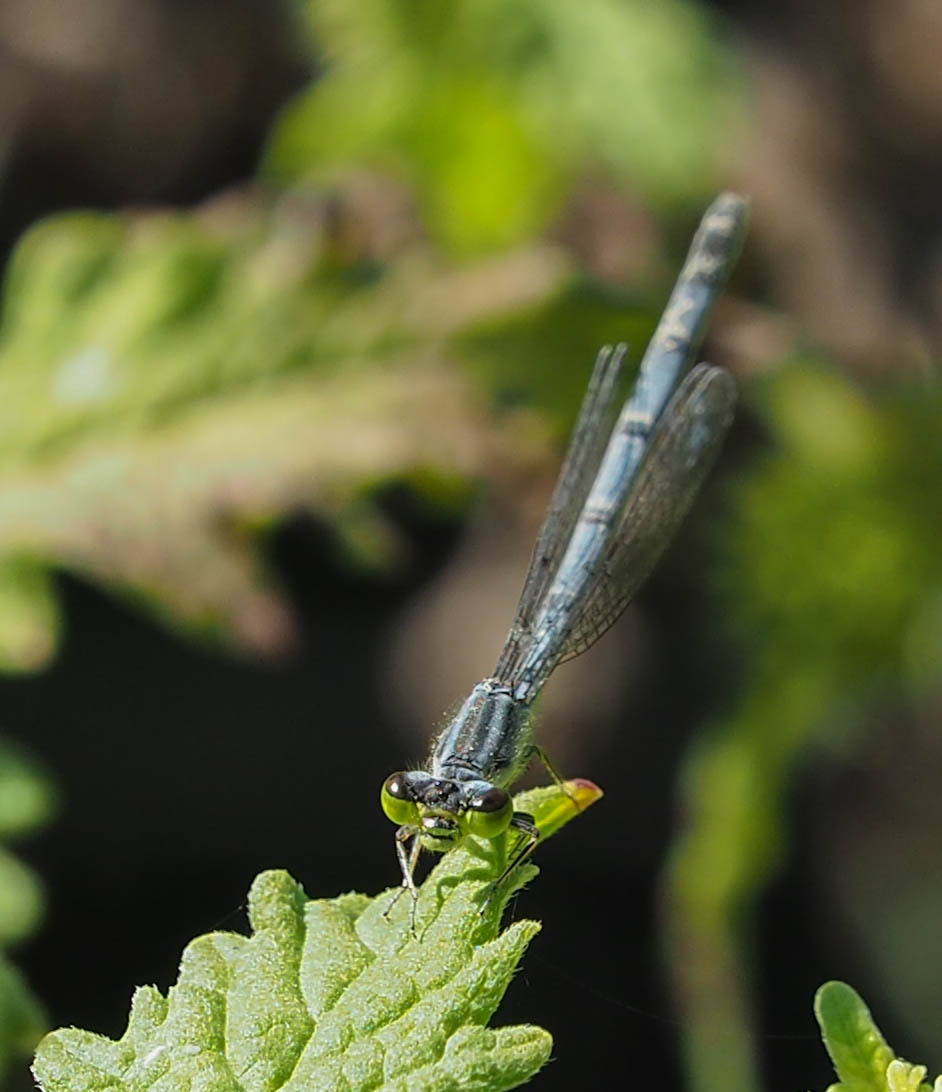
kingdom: Animalia
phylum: Arthropoda
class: Insecta
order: Odonata
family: Coenagrionidae
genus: Ischnura
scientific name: Ischnura verticalis
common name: Eastern forktail
